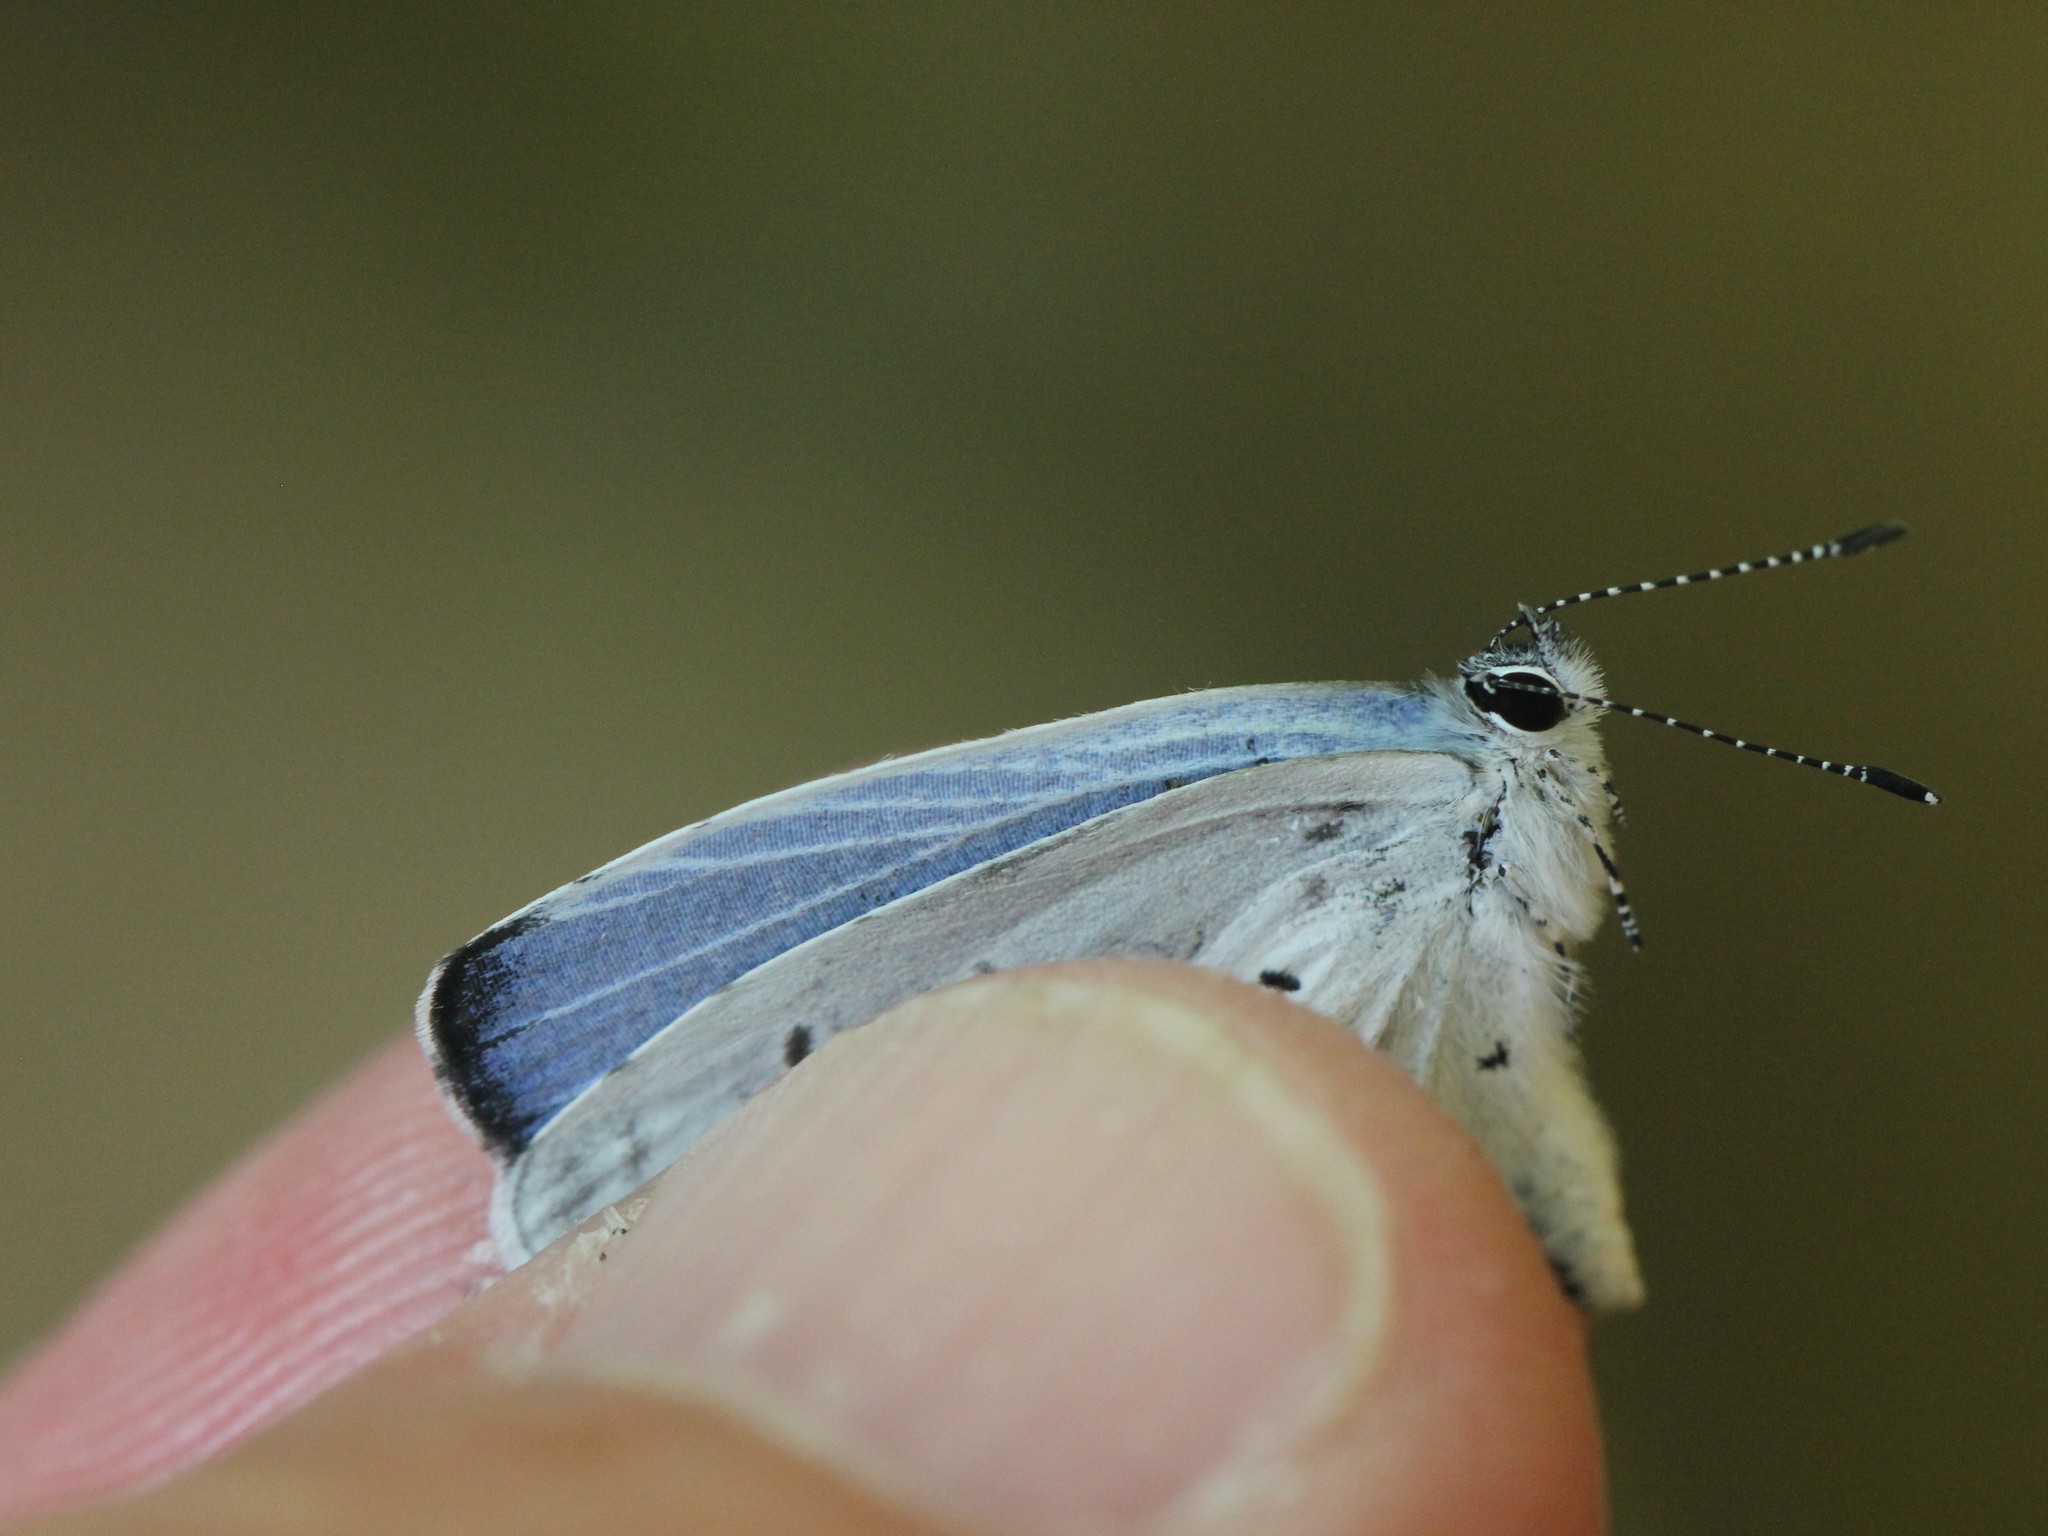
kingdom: Animalia
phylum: Arthropoda
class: Insecta
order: Lepidoptera
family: Lycaenidae
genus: Cyaniris
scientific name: Cyaniris neglecta
